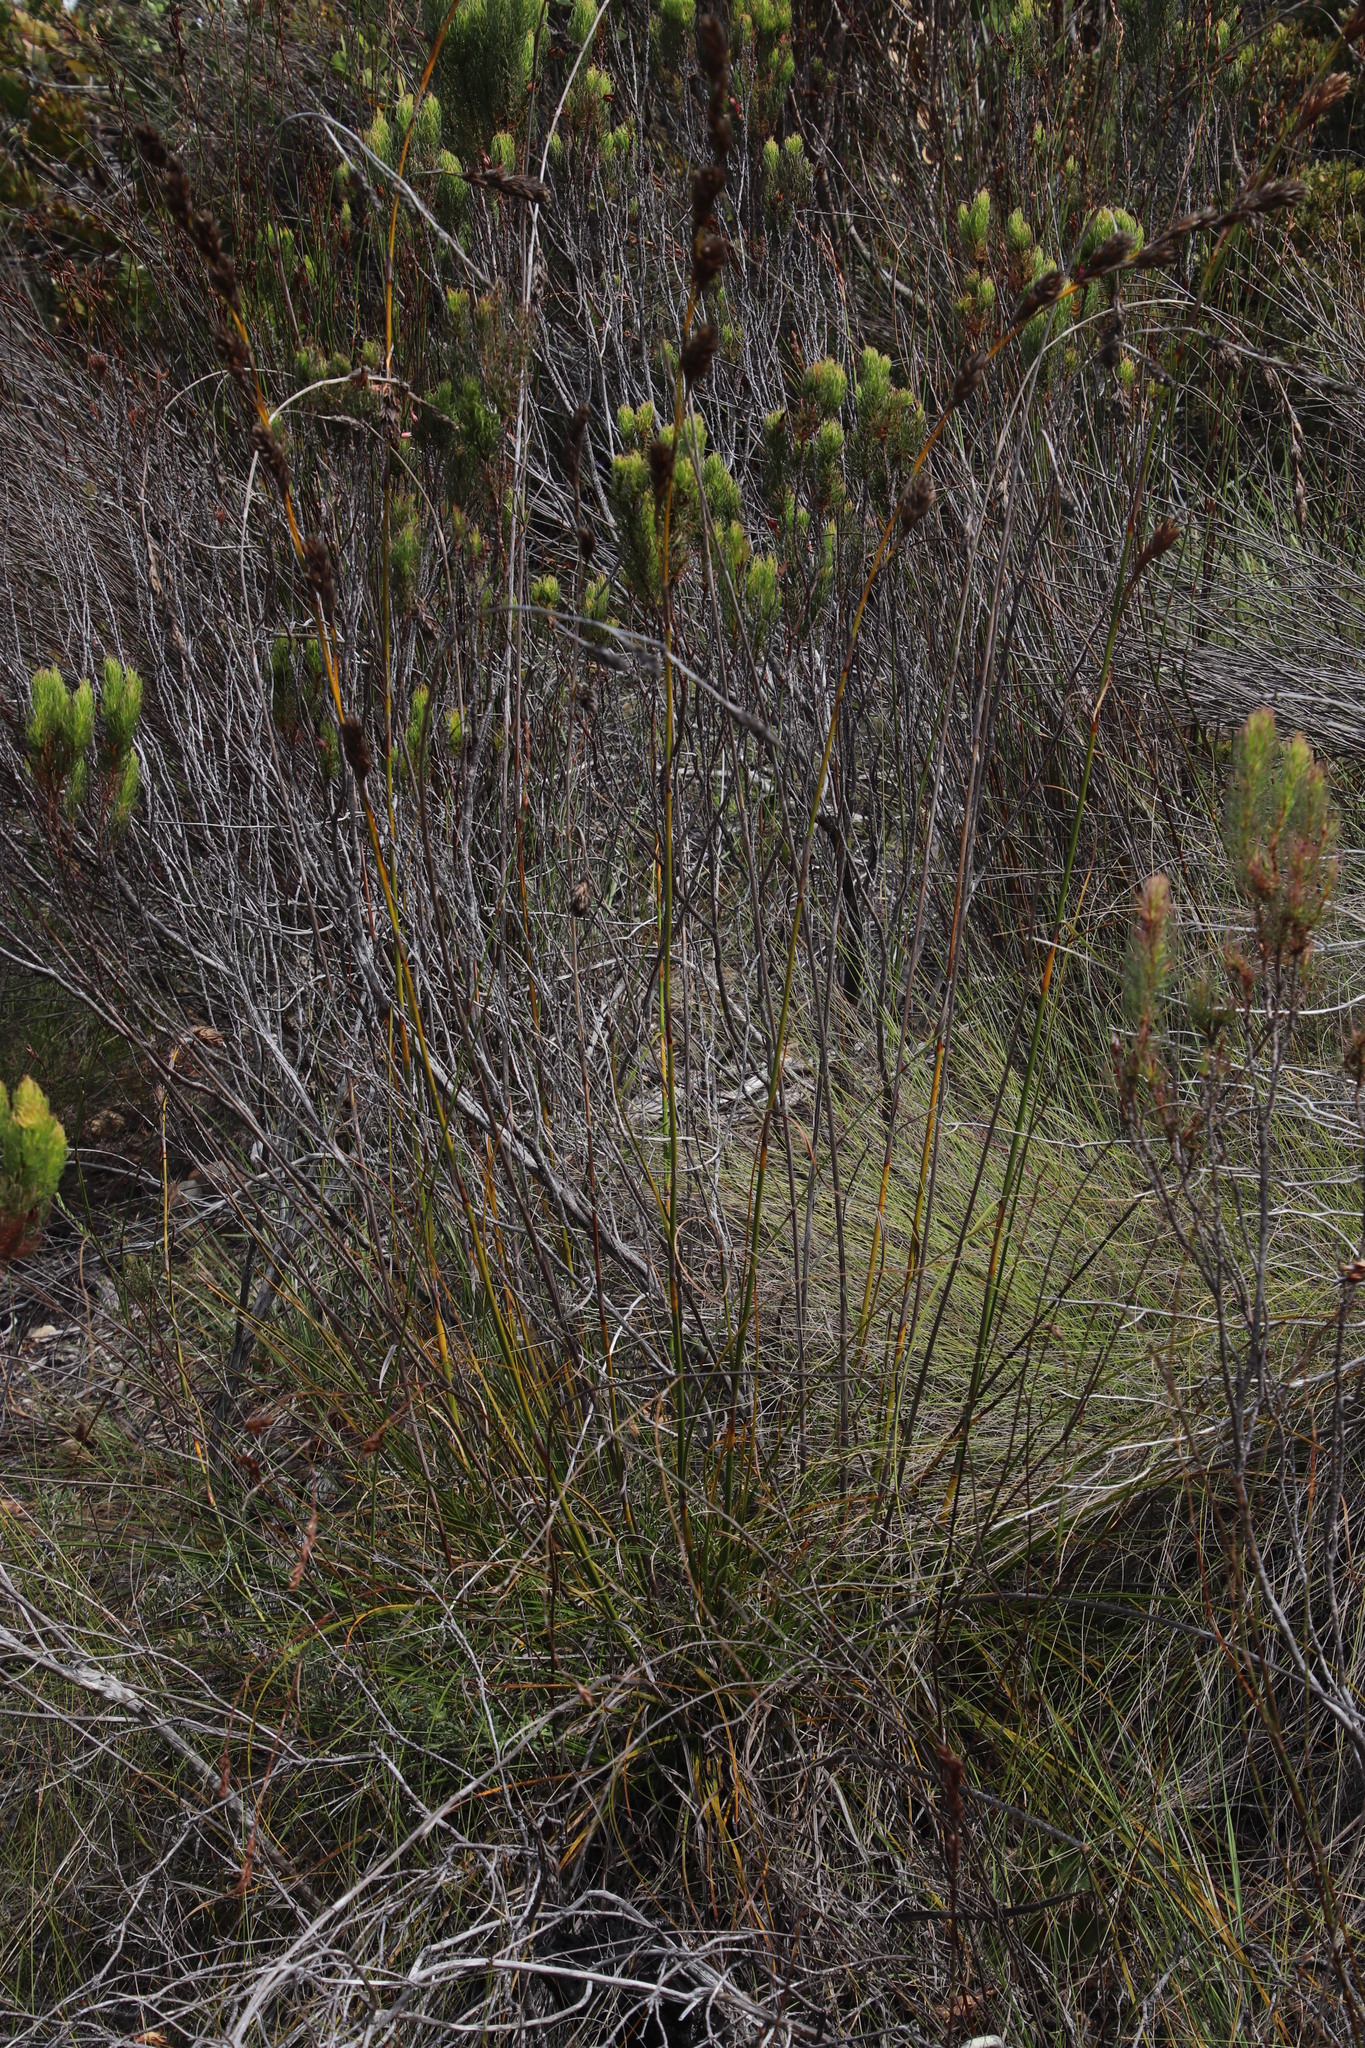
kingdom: Plantae
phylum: Tracheophyta
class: Liliopsida
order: Poales
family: Cyperaceae
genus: Tetraria
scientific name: Tetraria bromoides
